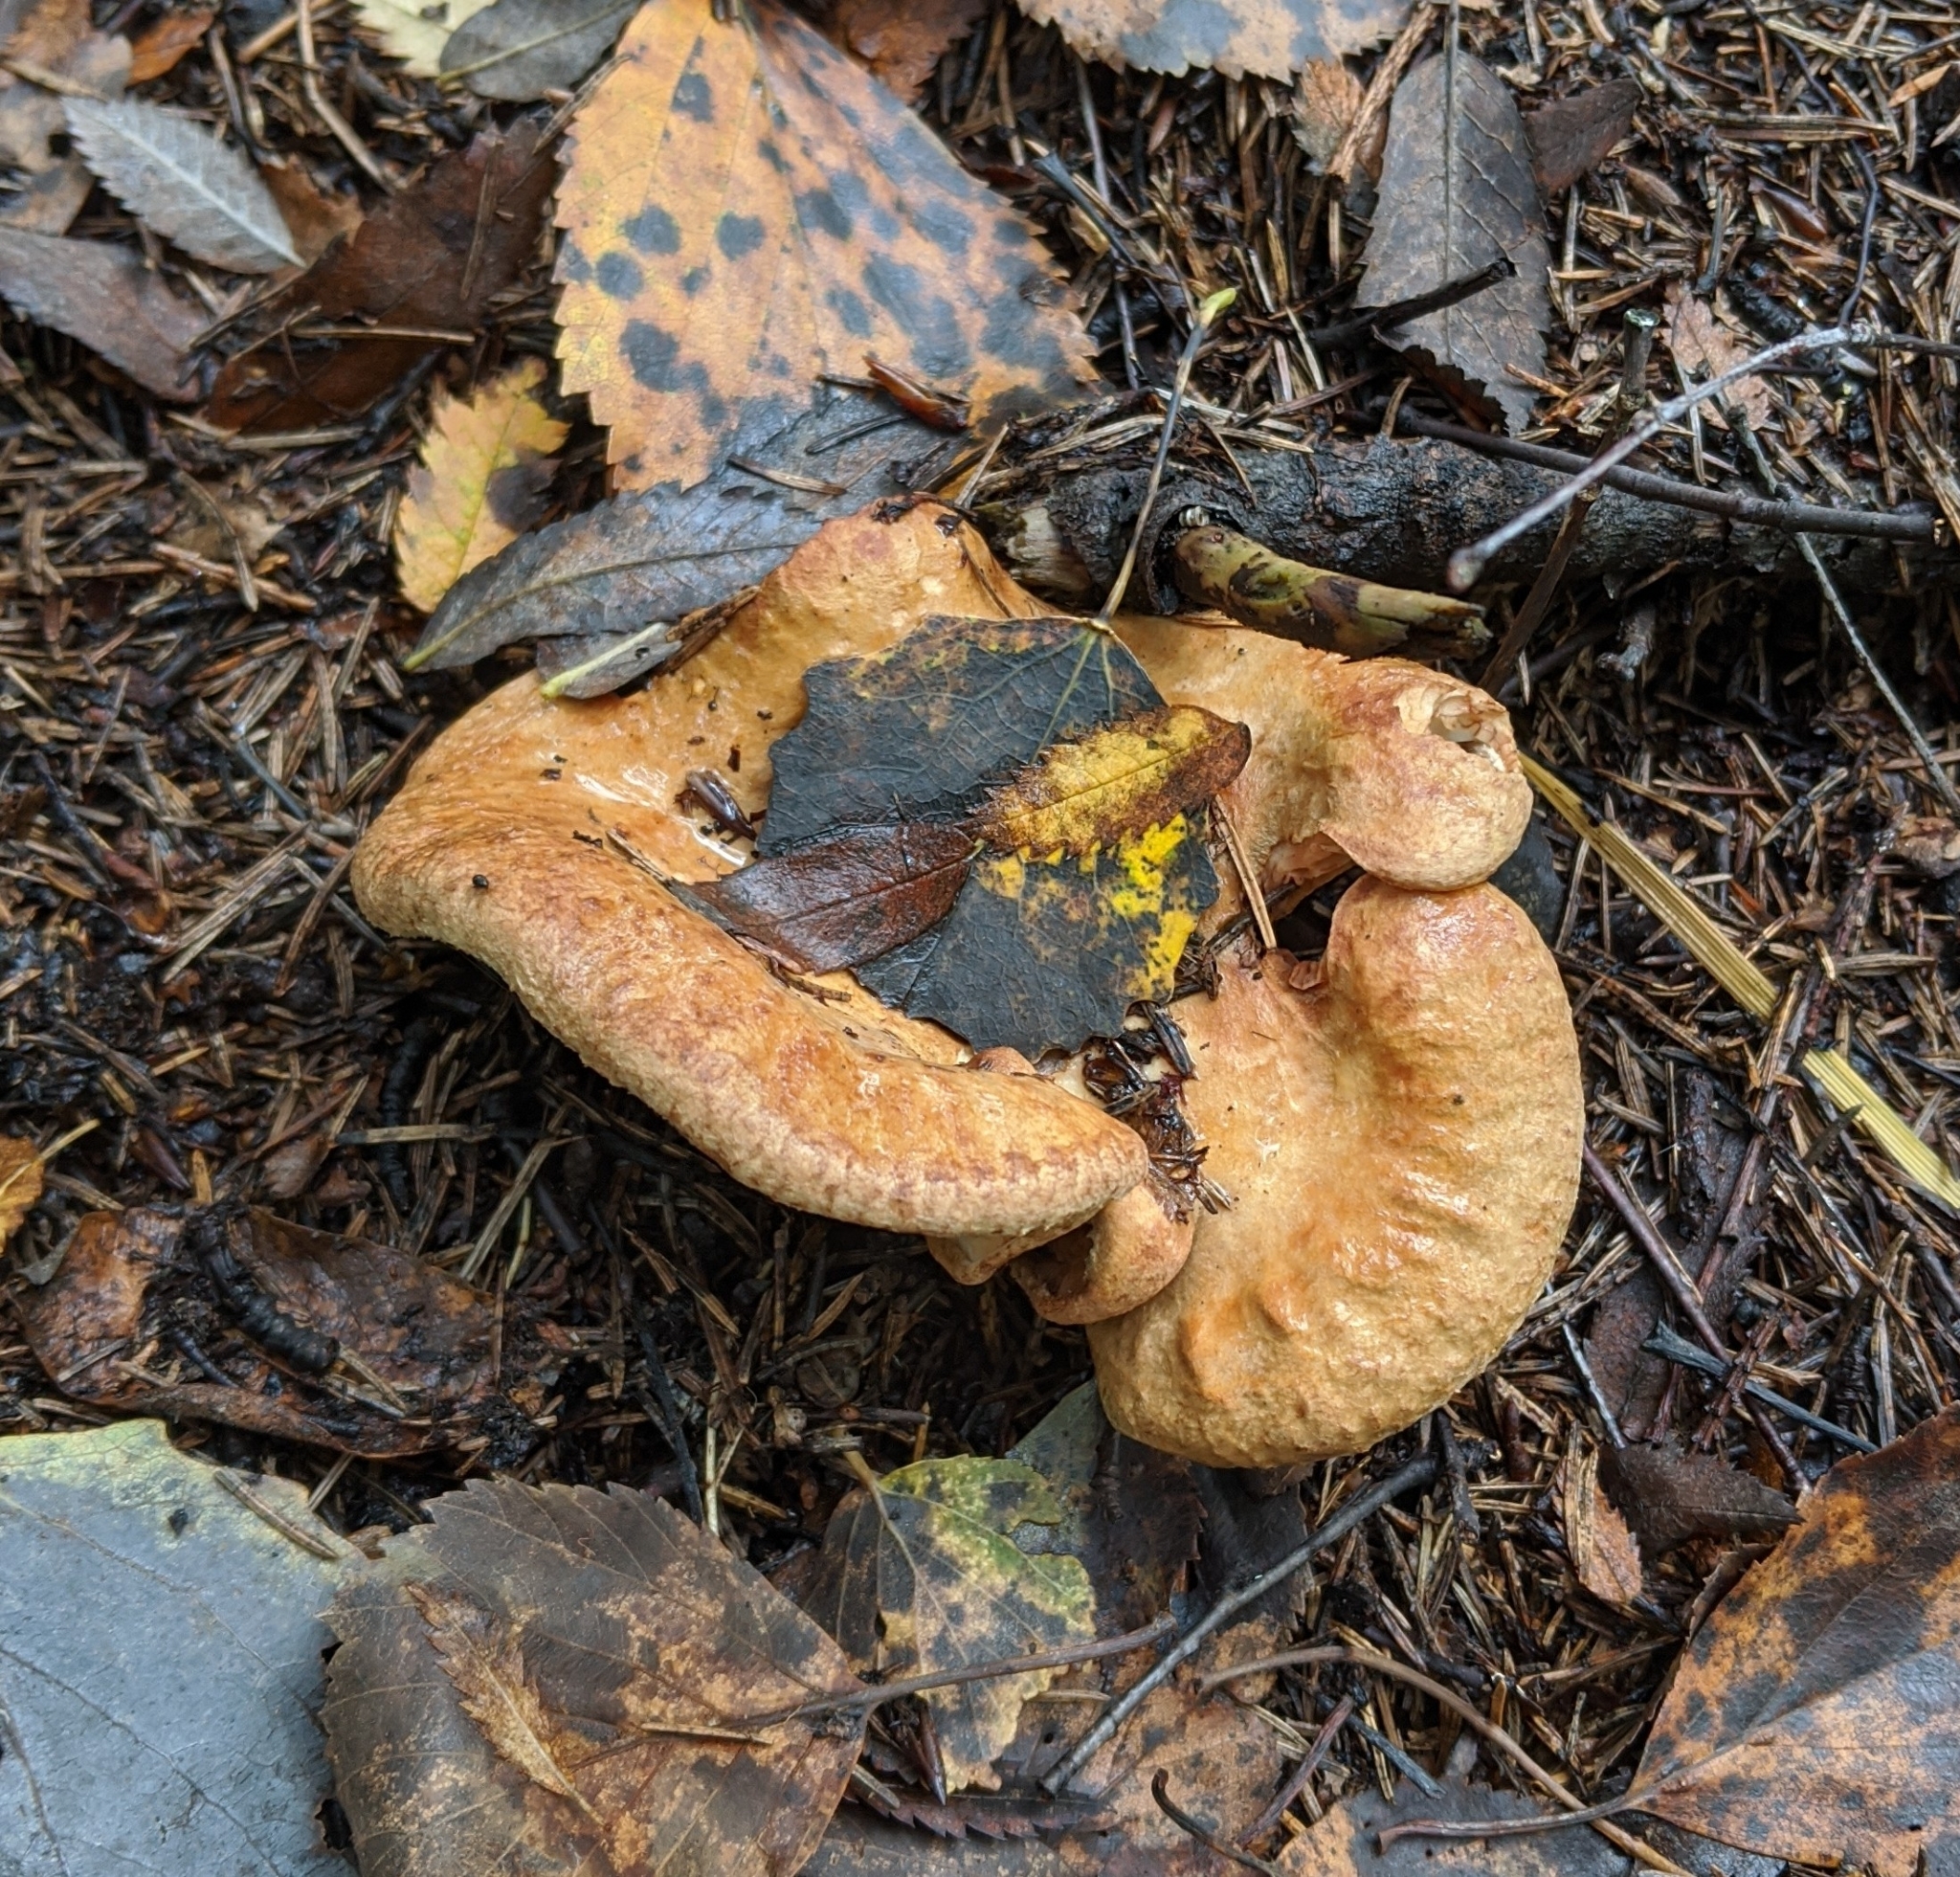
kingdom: Fungi
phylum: Basidiomycota
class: Agaricomycetes
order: Boletales
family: Paxillaceae
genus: Paxillus
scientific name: Paxillus involutus
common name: Brown roll rim
